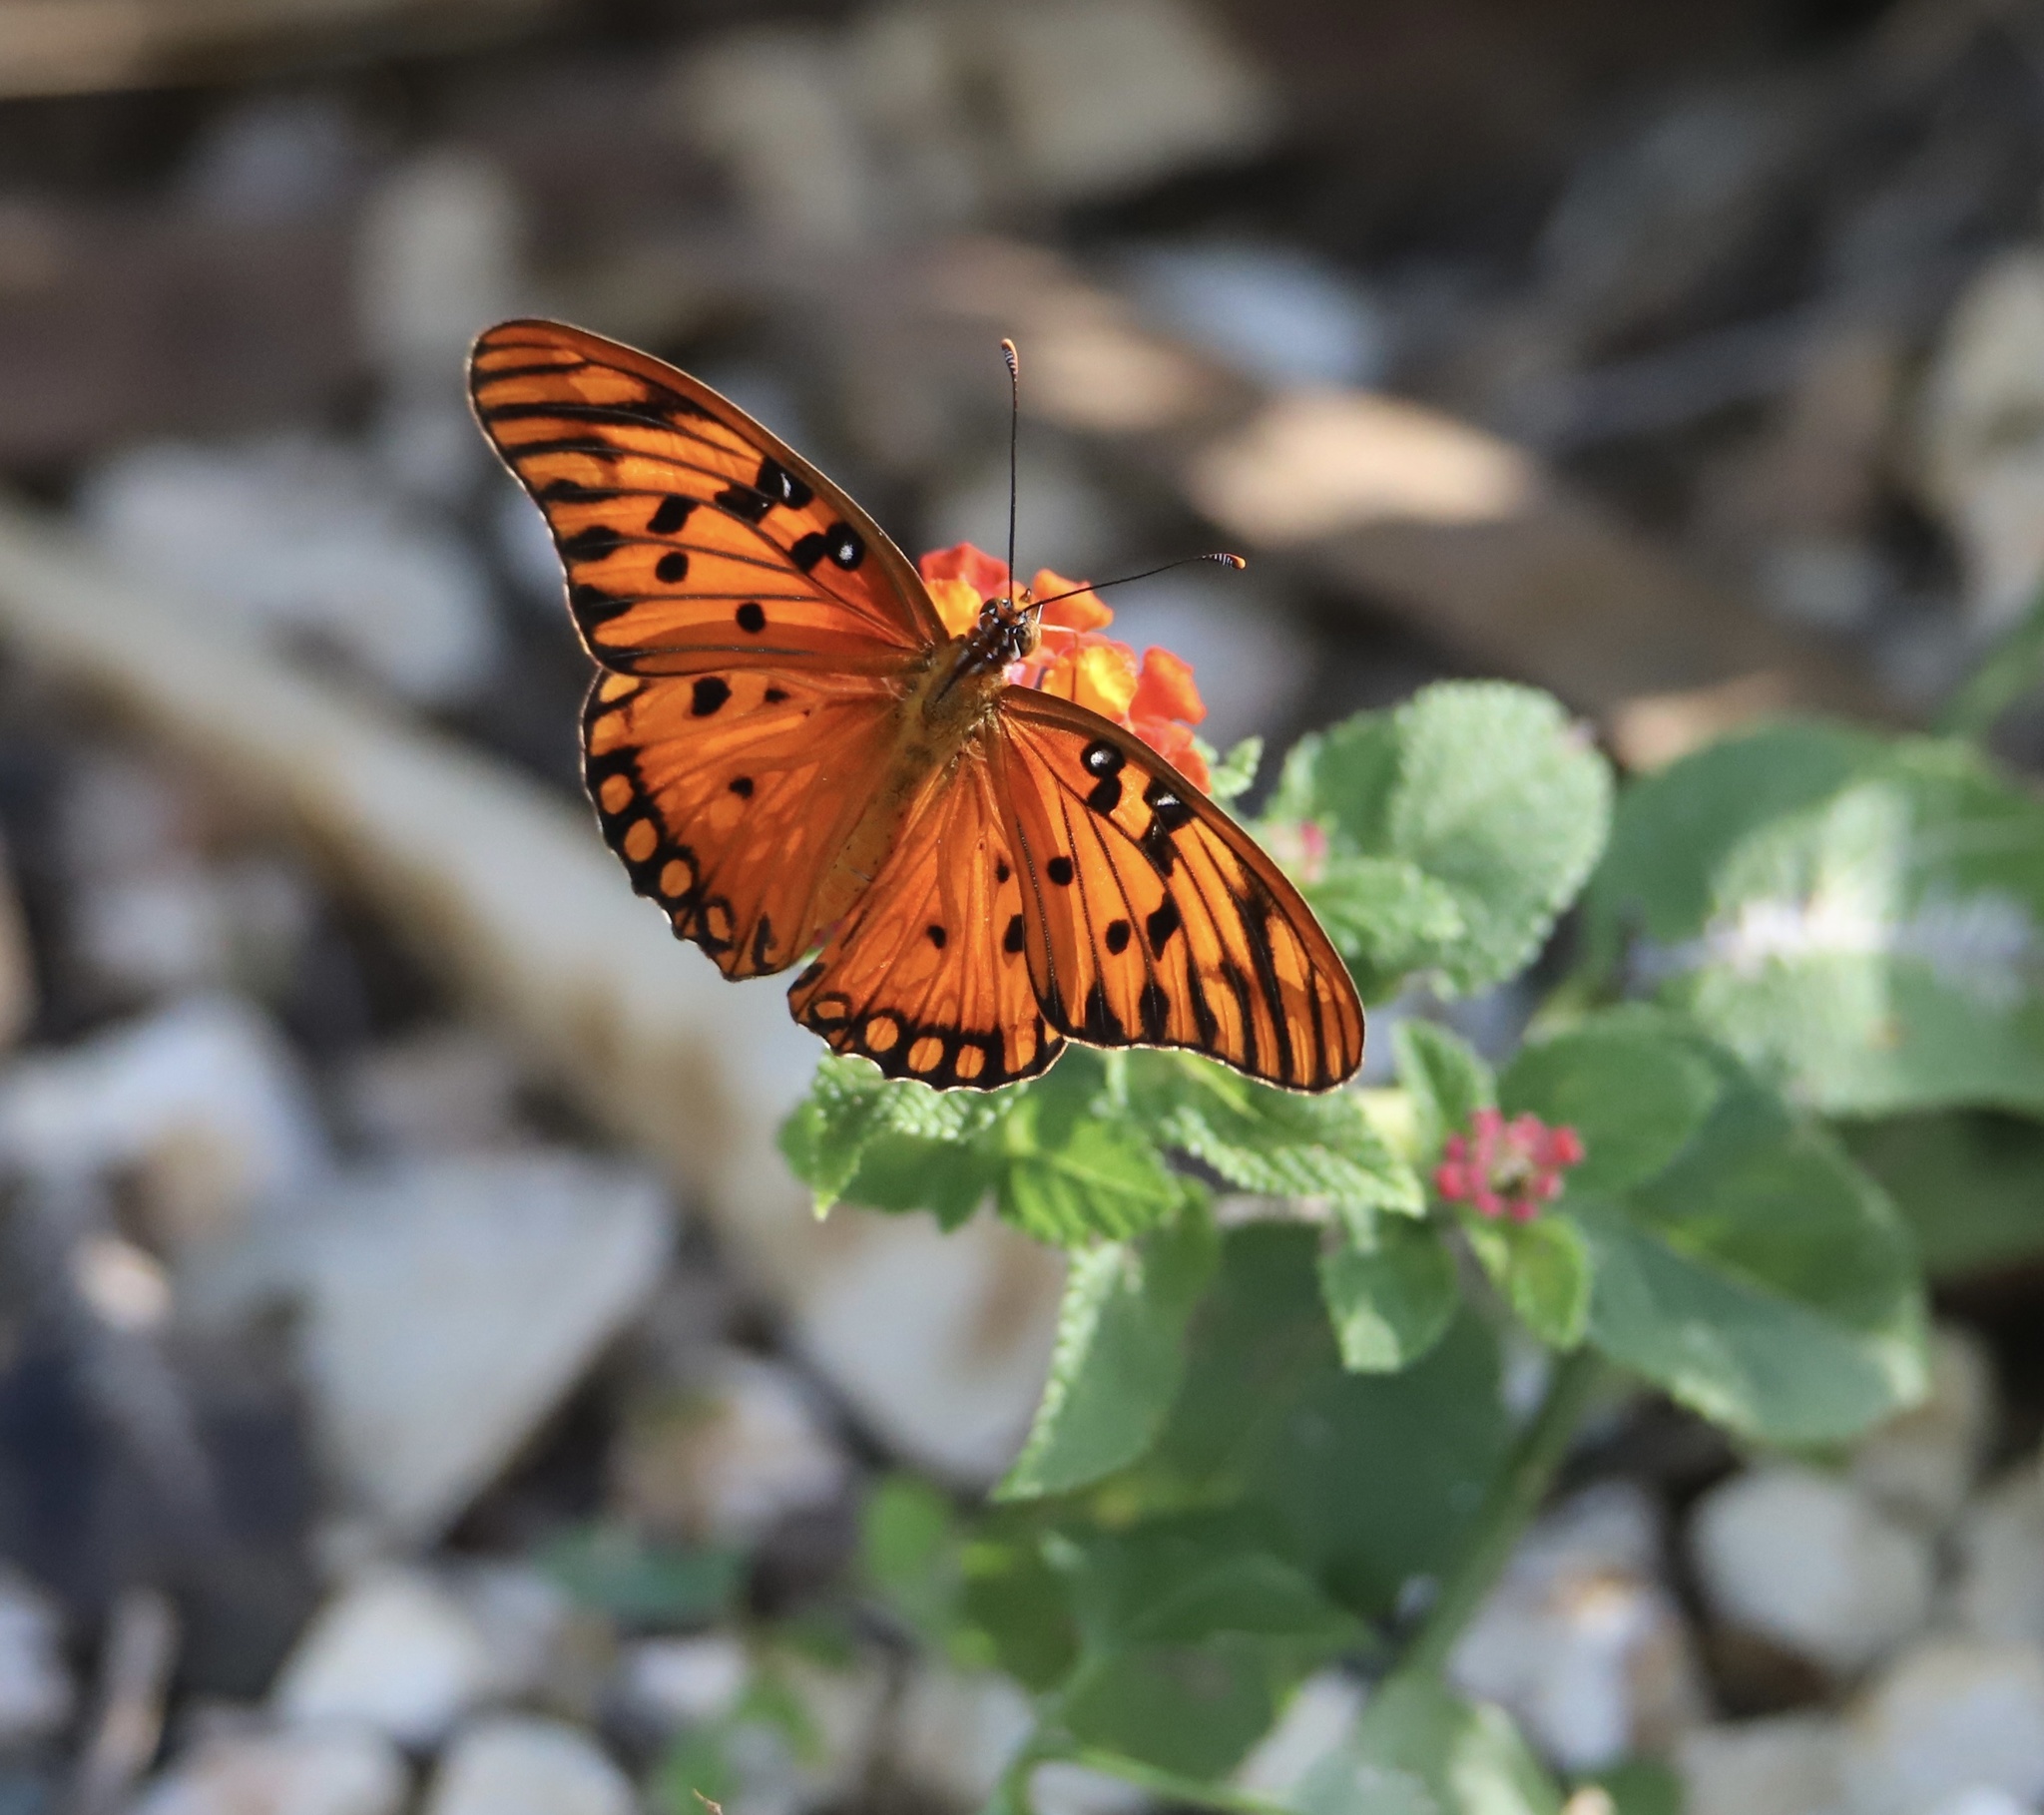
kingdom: Animalia
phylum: Arthropoda
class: Insecta
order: Lepidoptera
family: Nymphalidae
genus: Dione
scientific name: Dione vanillae
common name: Gulf fritillary
